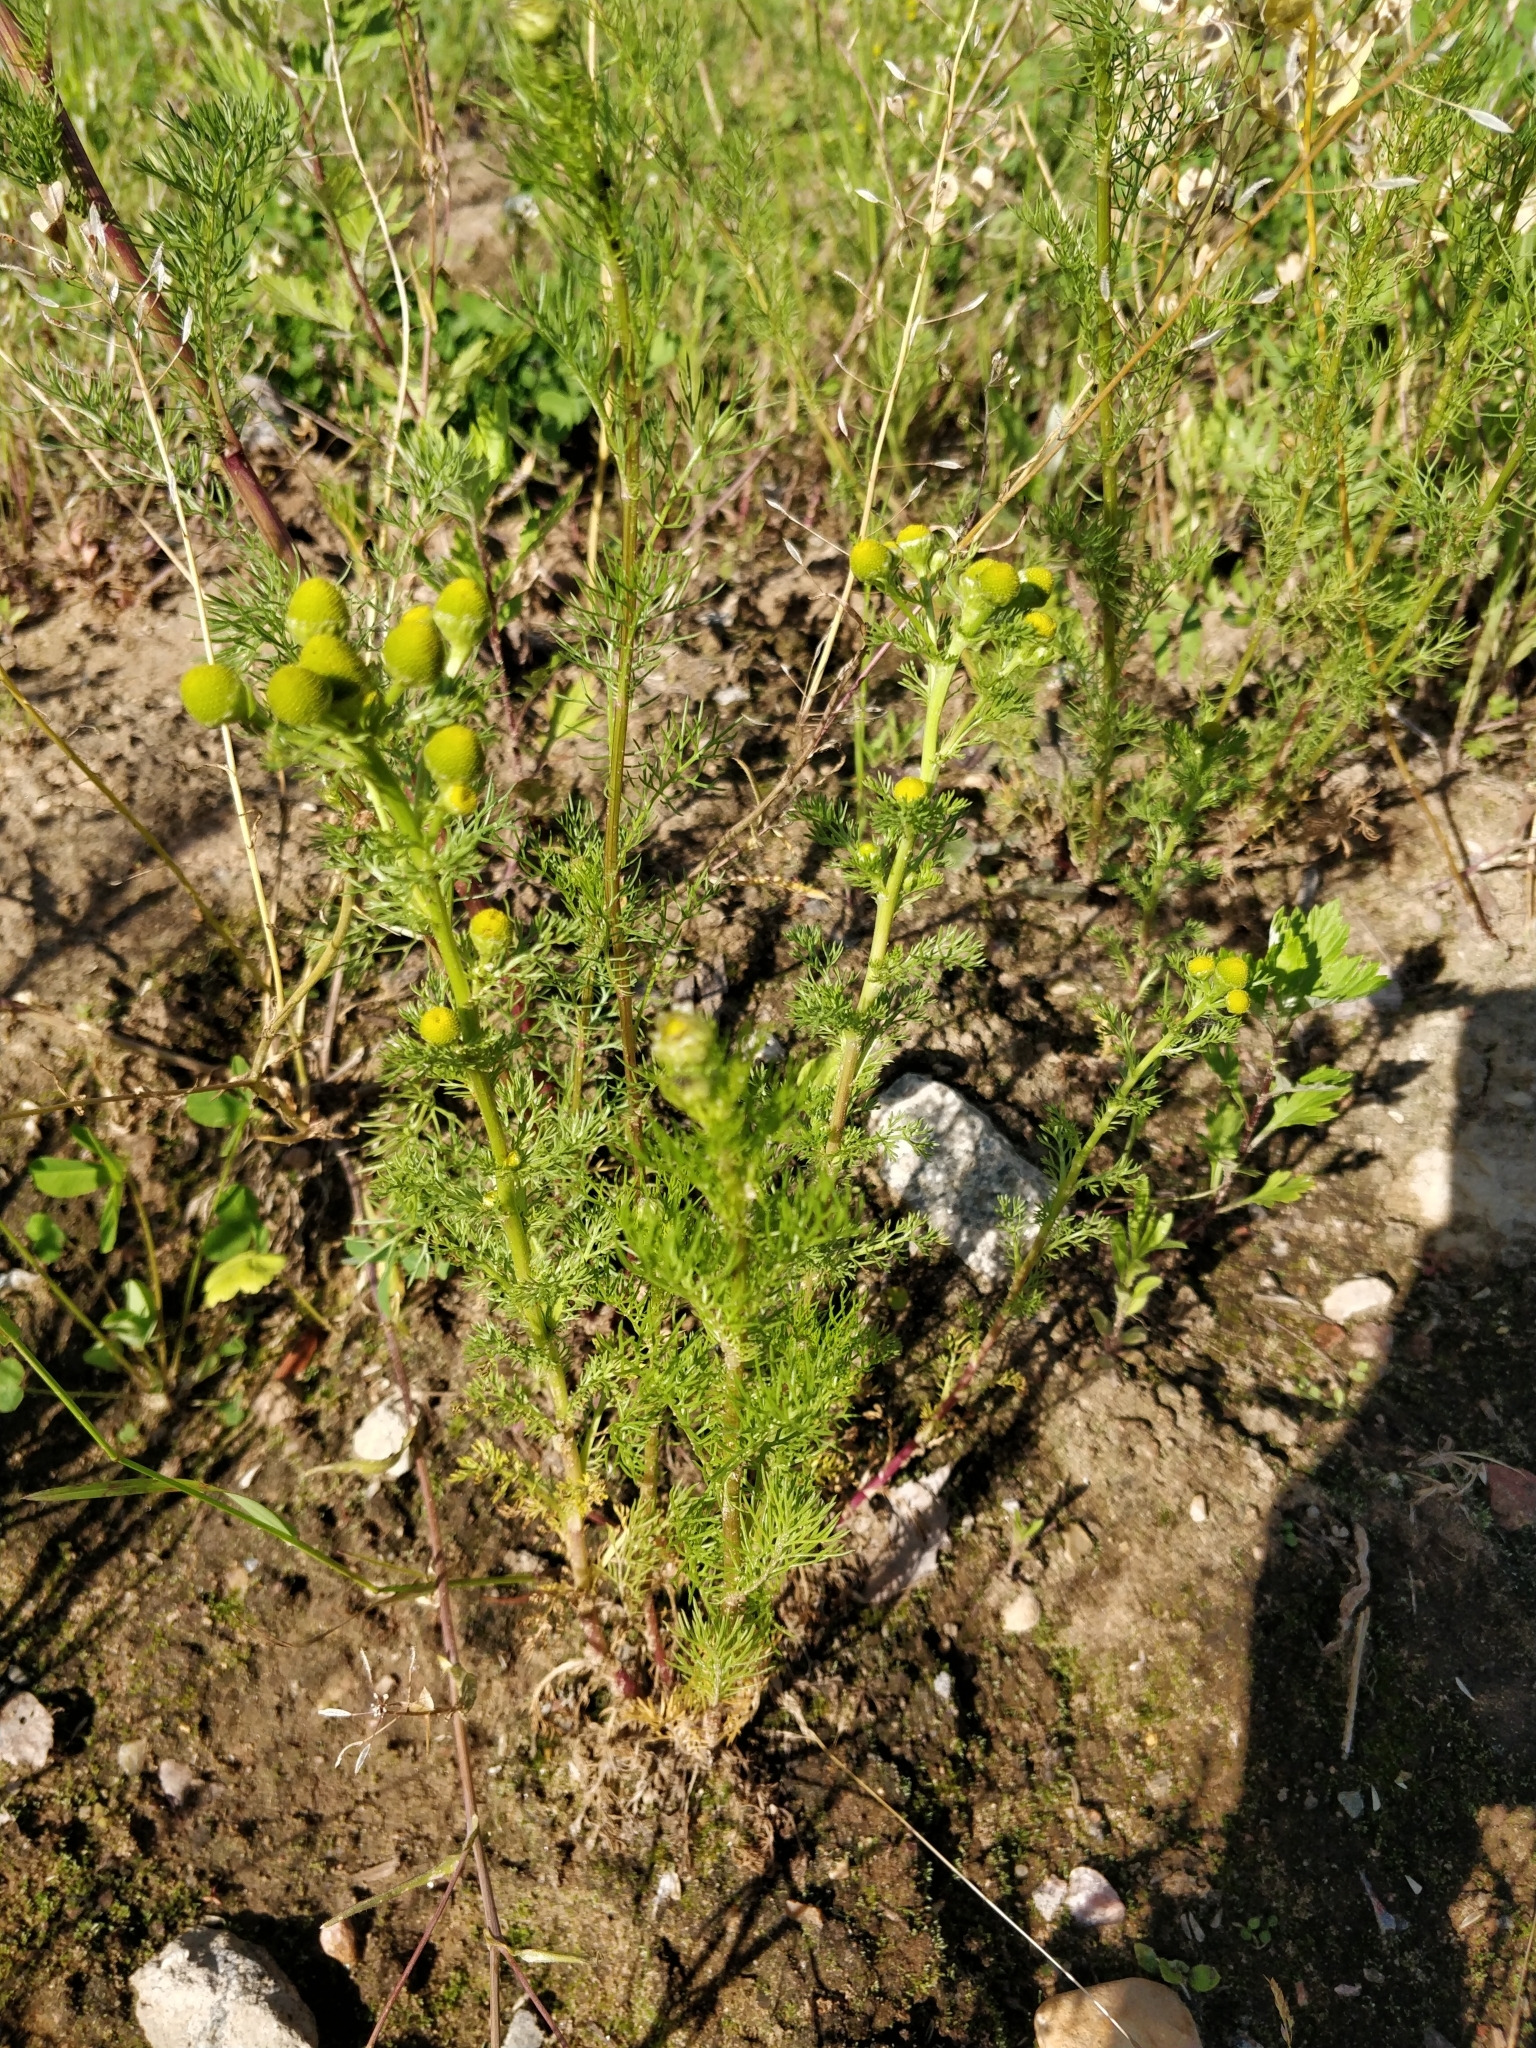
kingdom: Plantae
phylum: Tracheophyta
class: Magnoliopsida
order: Asterales
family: Asteraceae
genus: Matricaria
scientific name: Matricaria discoidea
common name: Disc mayweed
